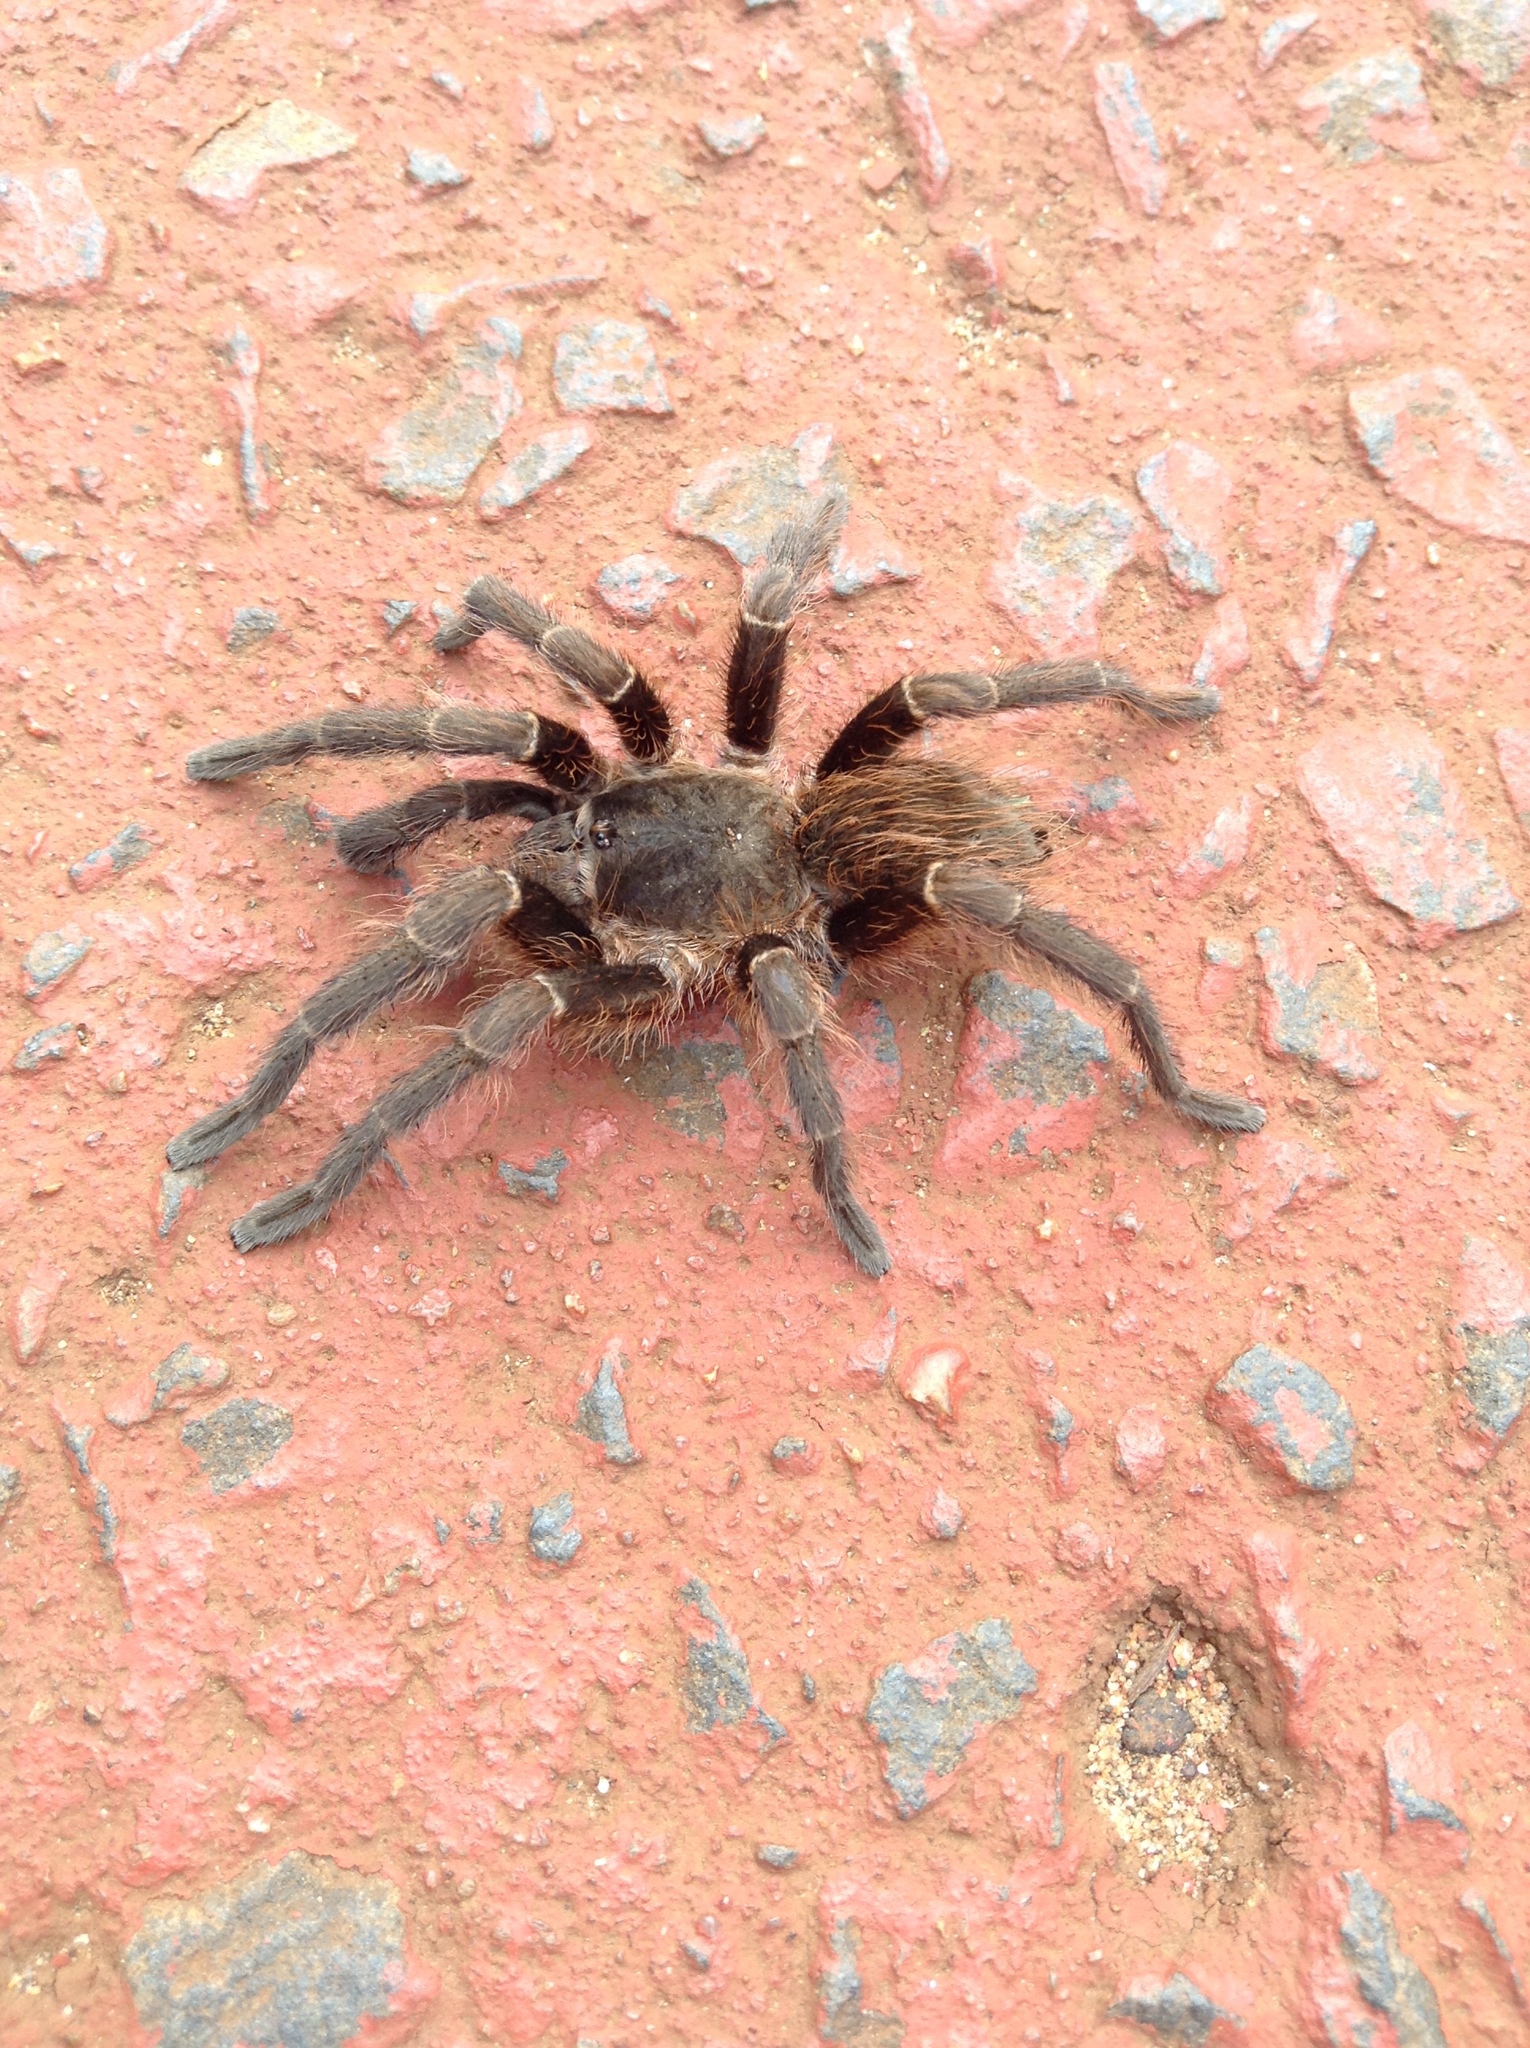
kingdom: Animalia
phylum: Arthropoda
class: Arachnida
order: Araneae
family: Theraphosidae
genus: Pterinopelma
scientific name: Pterinopelma longisternale
